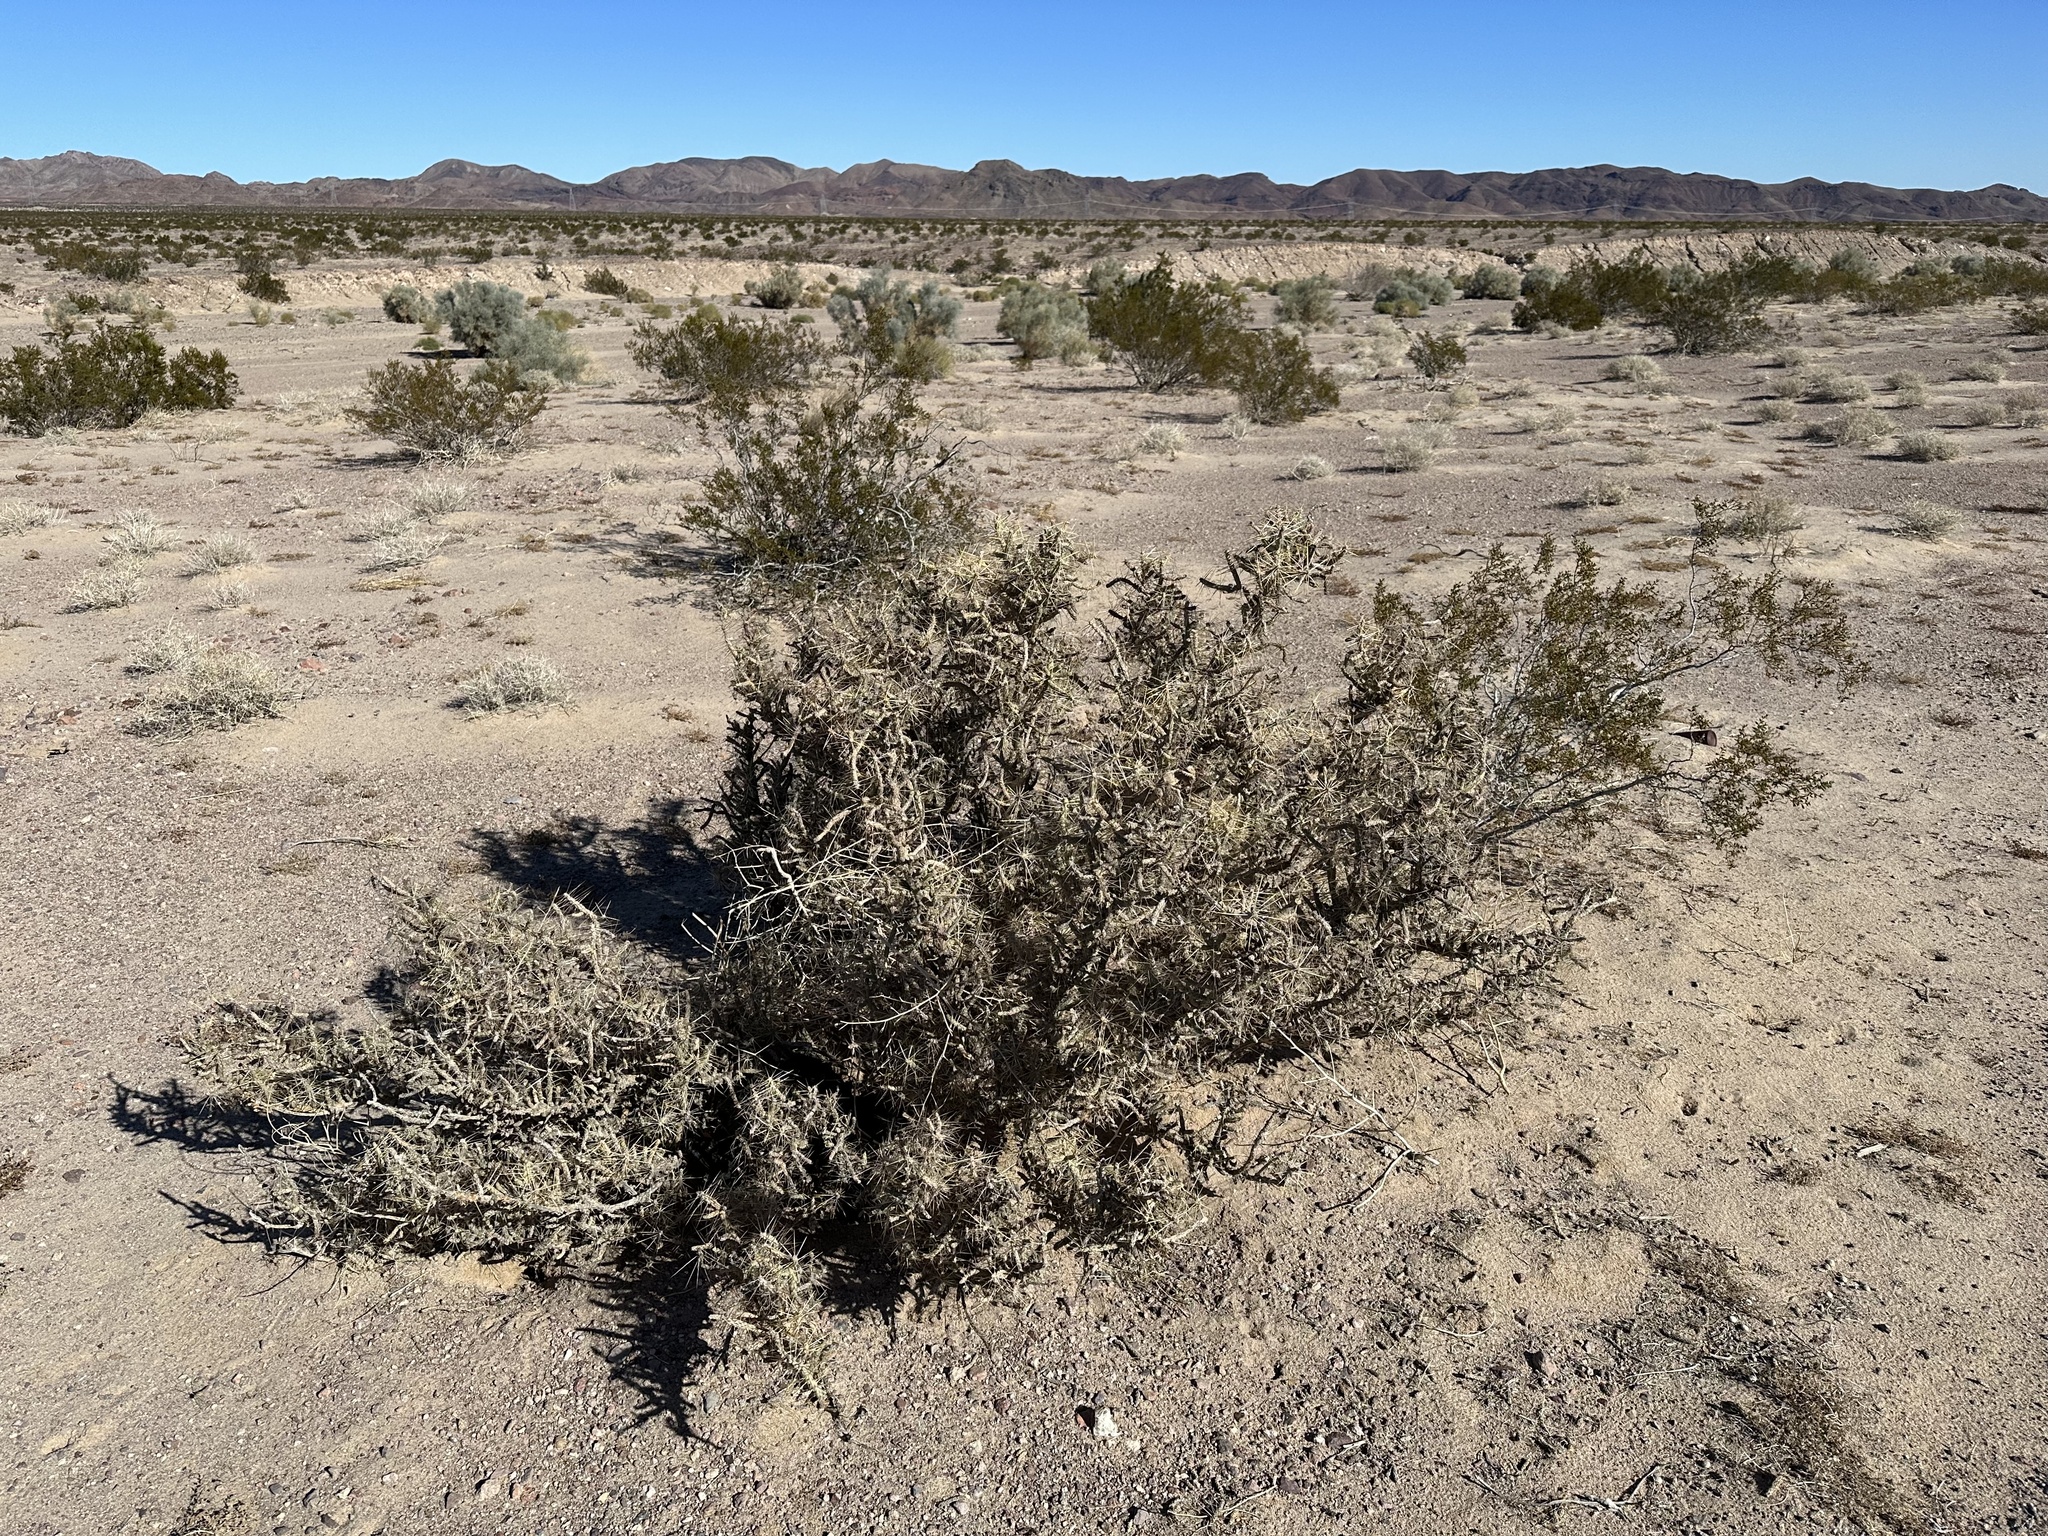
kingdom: Plantae
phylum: Tracheophyta
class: Magnoliopsida
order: Caryophyllales
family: Cactaceae
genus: Cylindropuntia
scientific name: Cylindropuntia ramosissima
